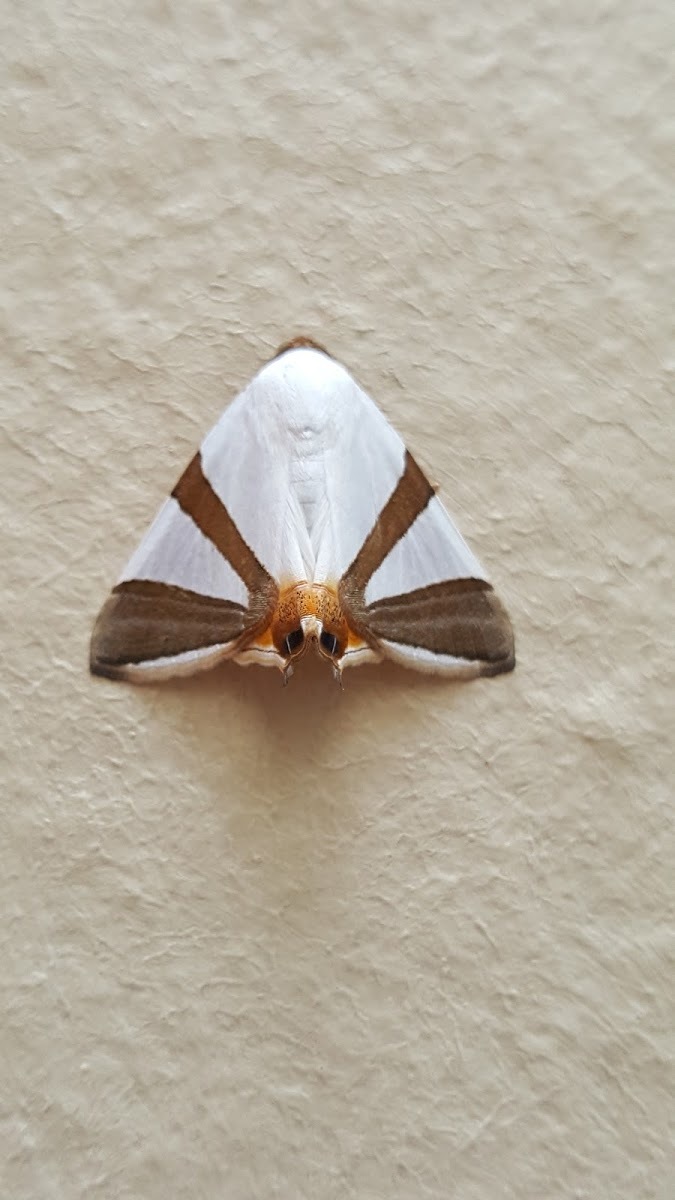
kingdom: Animalia
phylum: Arthropoda
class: Insecta
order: Lepidoptera
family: Erebidae
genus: Eulepidotis
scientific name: Eulepidotis rectimargo
